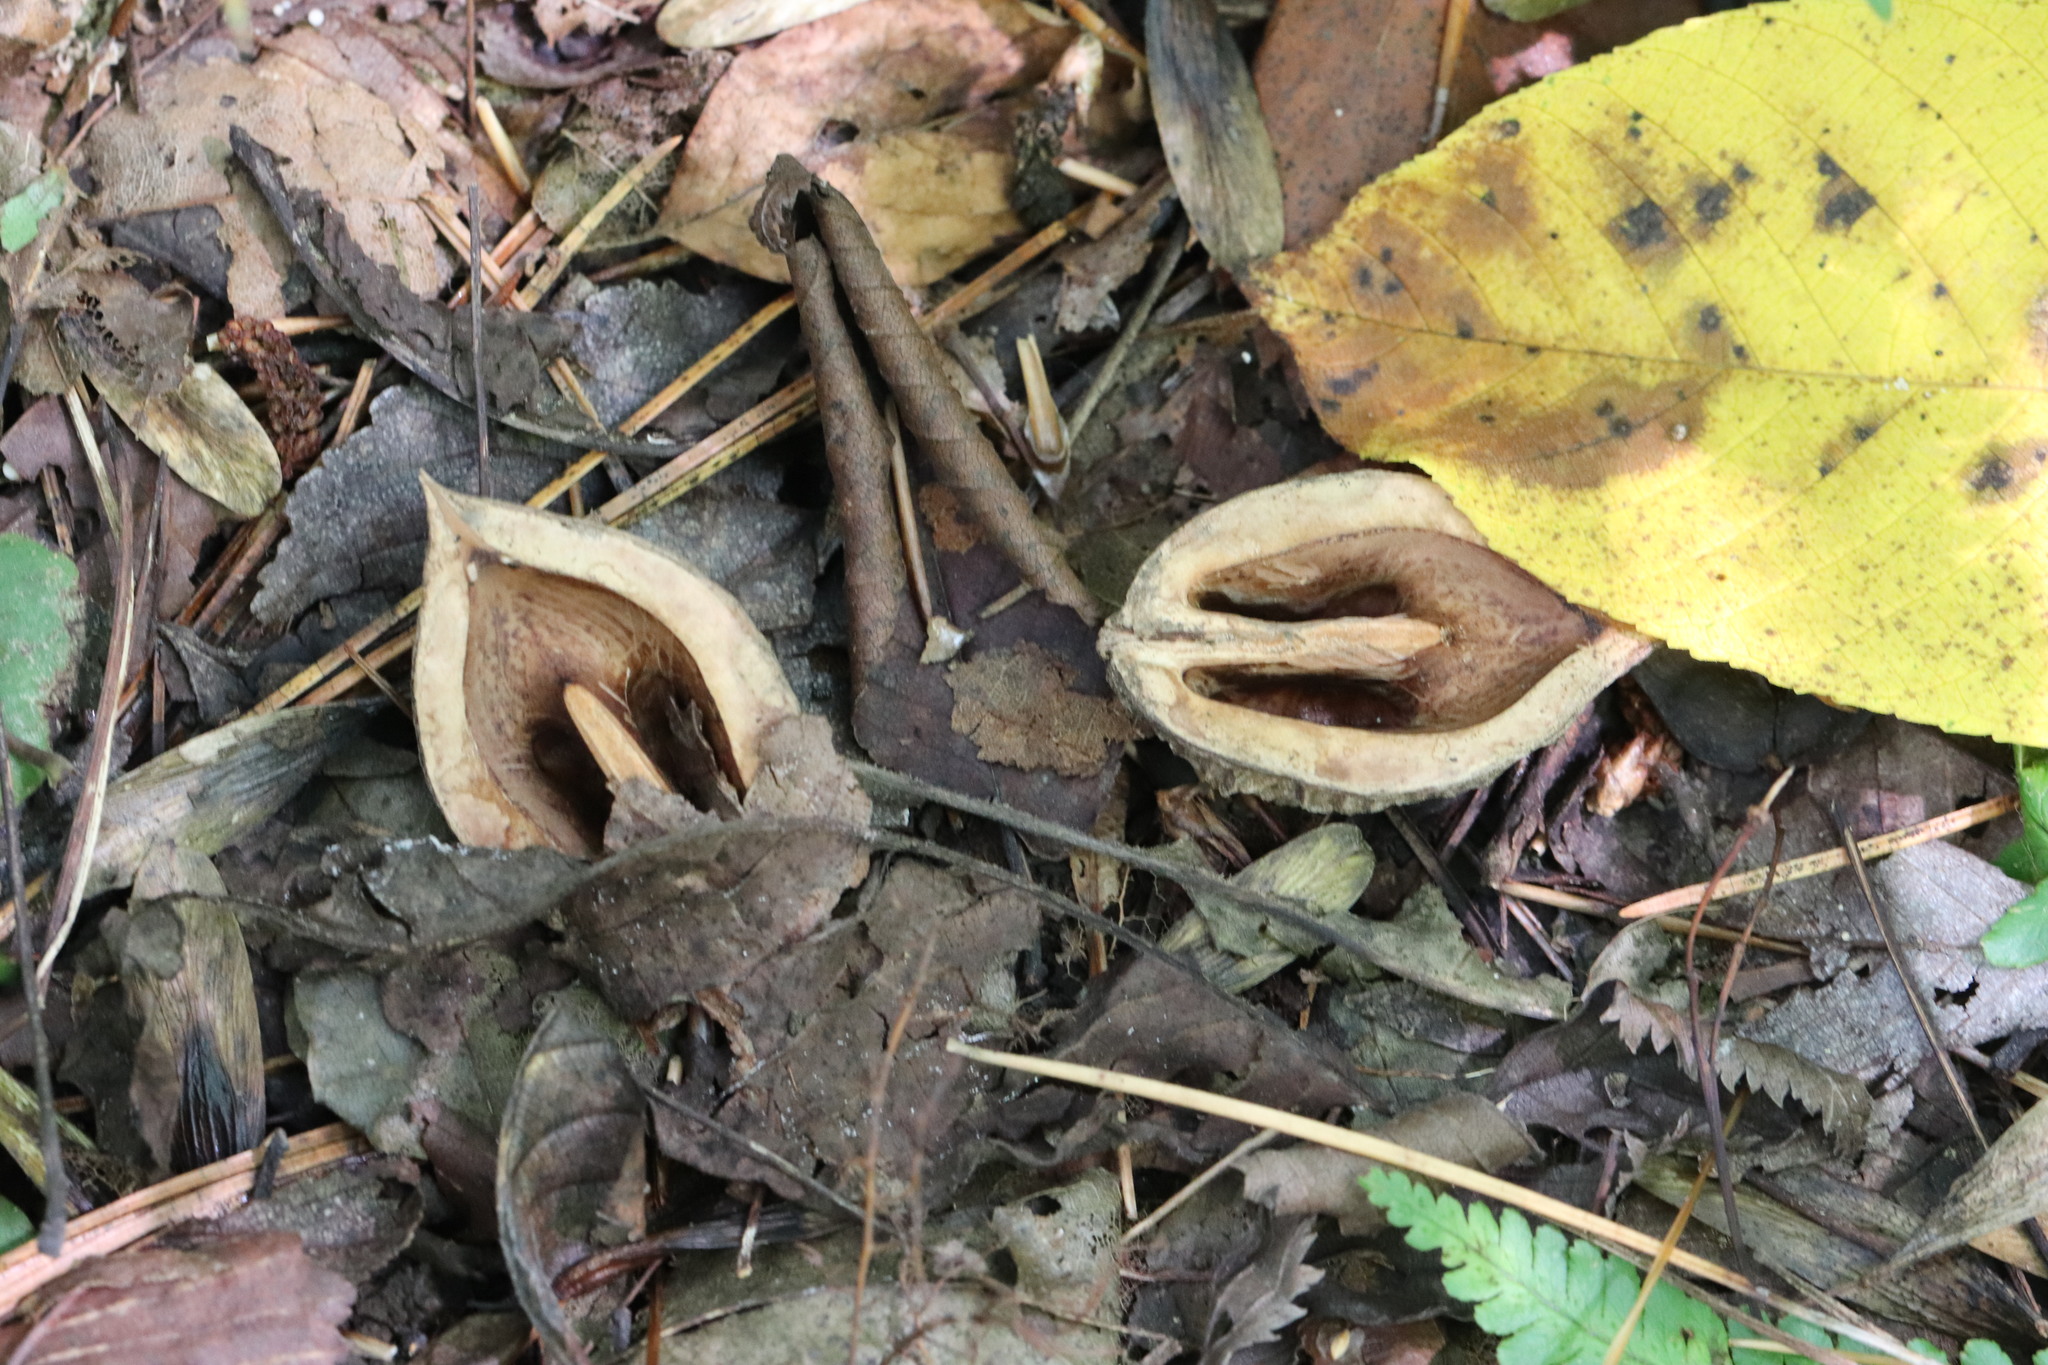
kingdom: Plantae
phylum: Tracheophyta
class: Magnoliopsida
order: Fagales
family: Juglandaceae
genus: Juglans
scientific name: Juglans mandshurica
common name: Manchurian walnut
